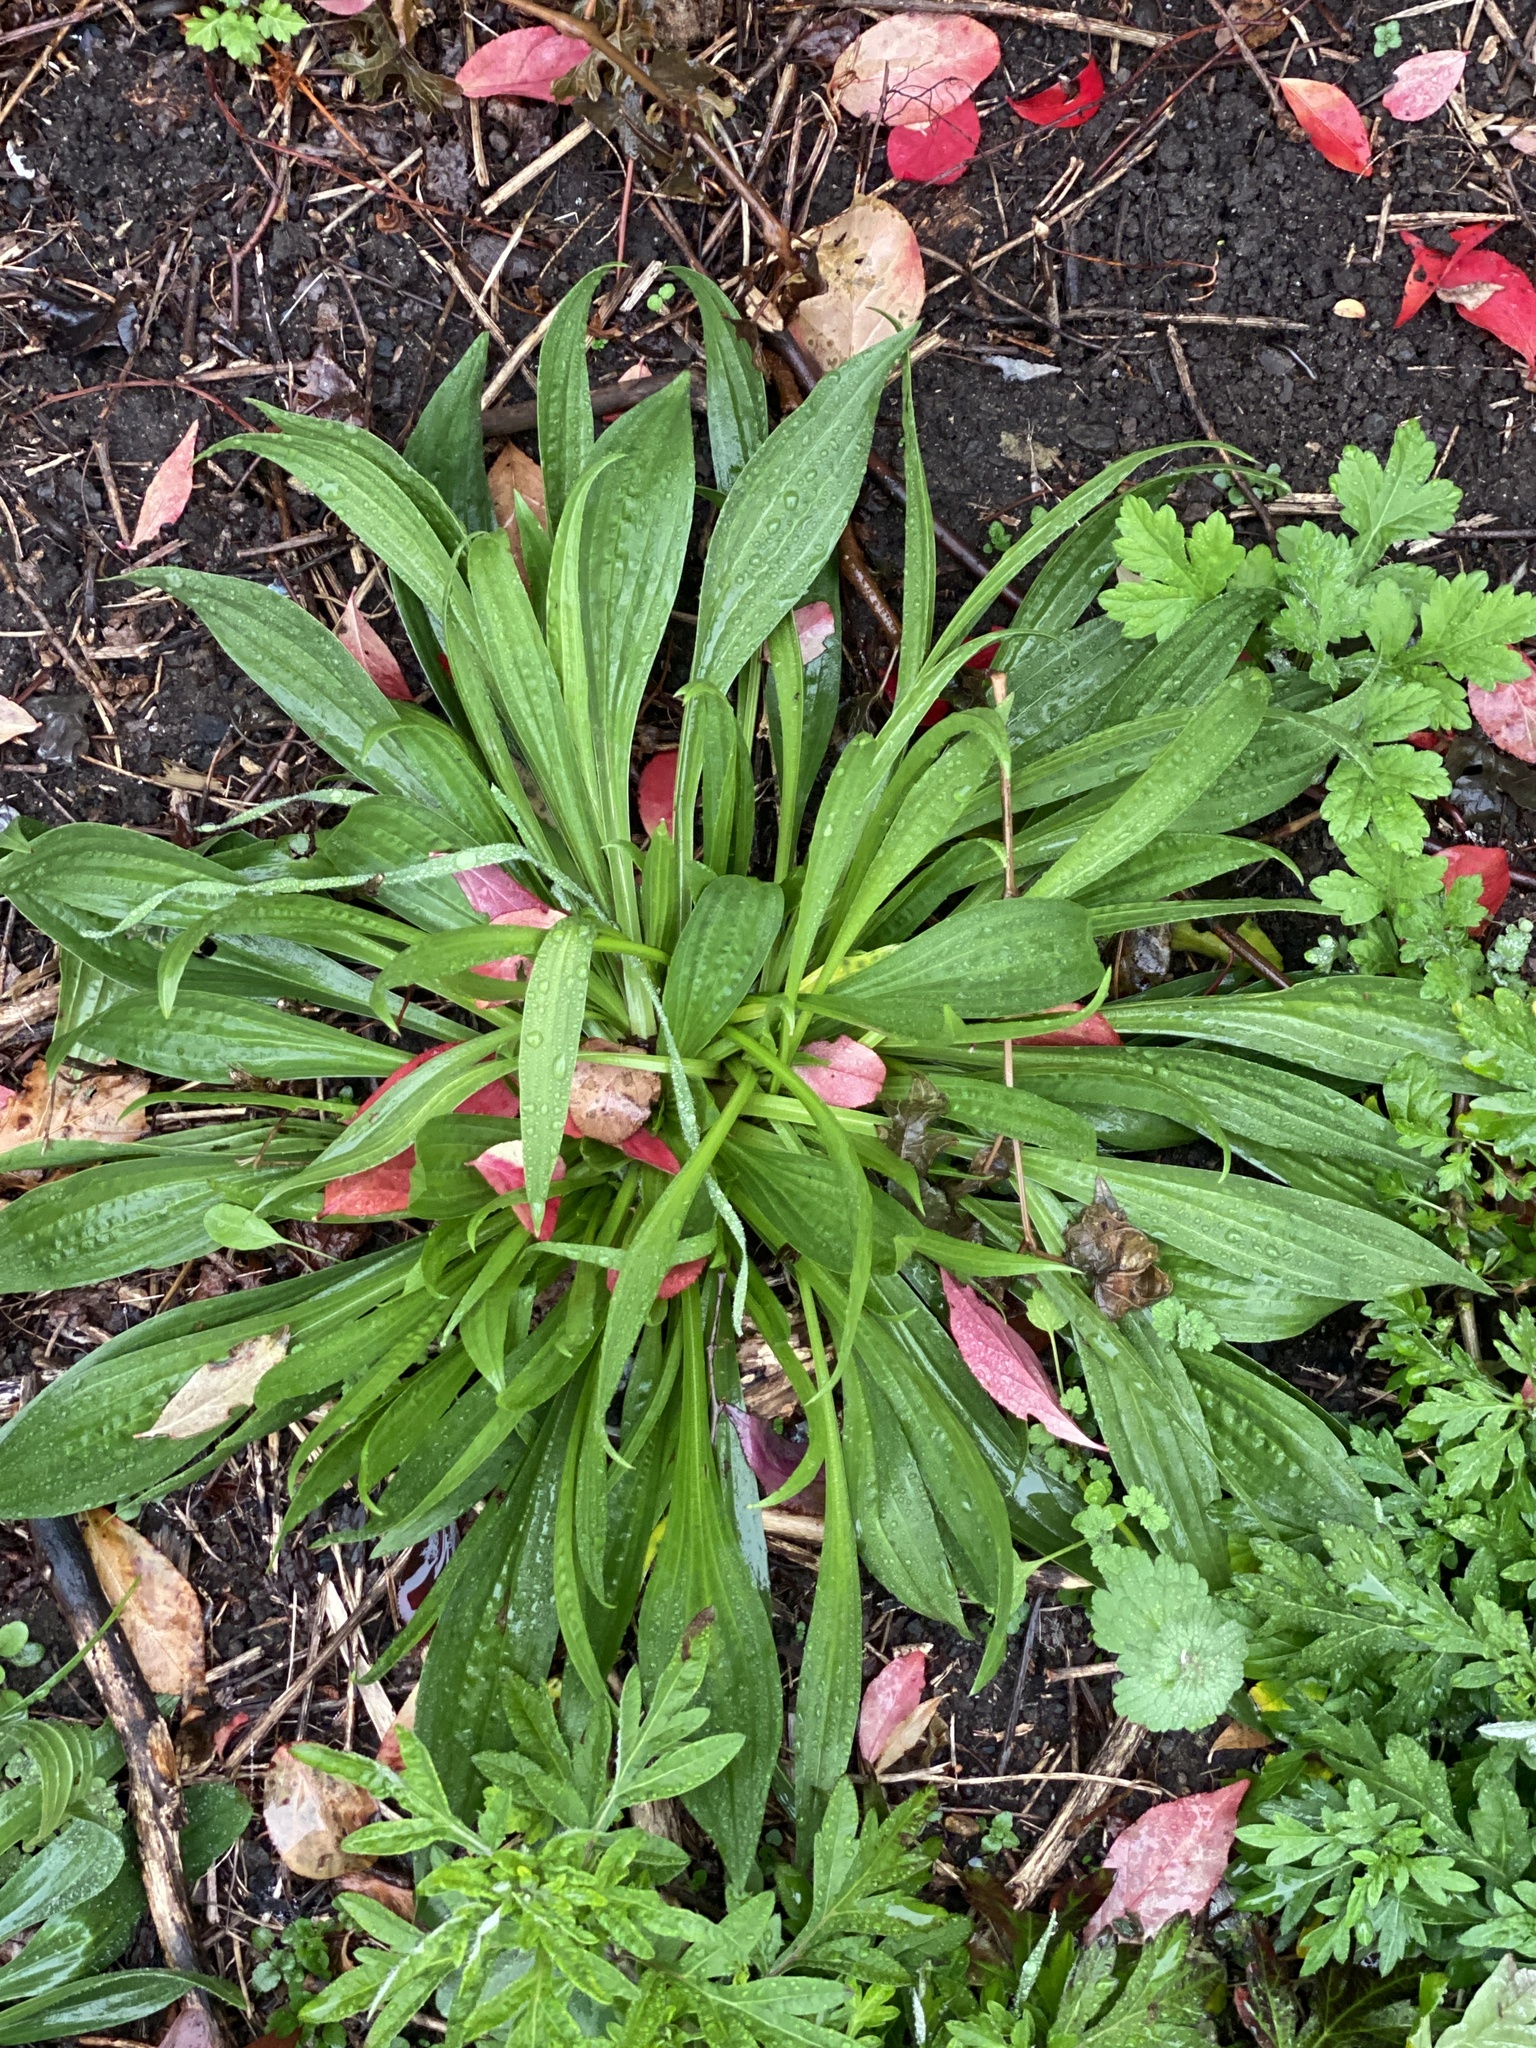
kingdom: Plantae
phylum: Tracheophyta
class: Magnoliopsida
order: Lamiales
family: Plantaginaceae
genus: Plantago
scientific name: Plantago lanceolata
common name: Ribwort plantain
